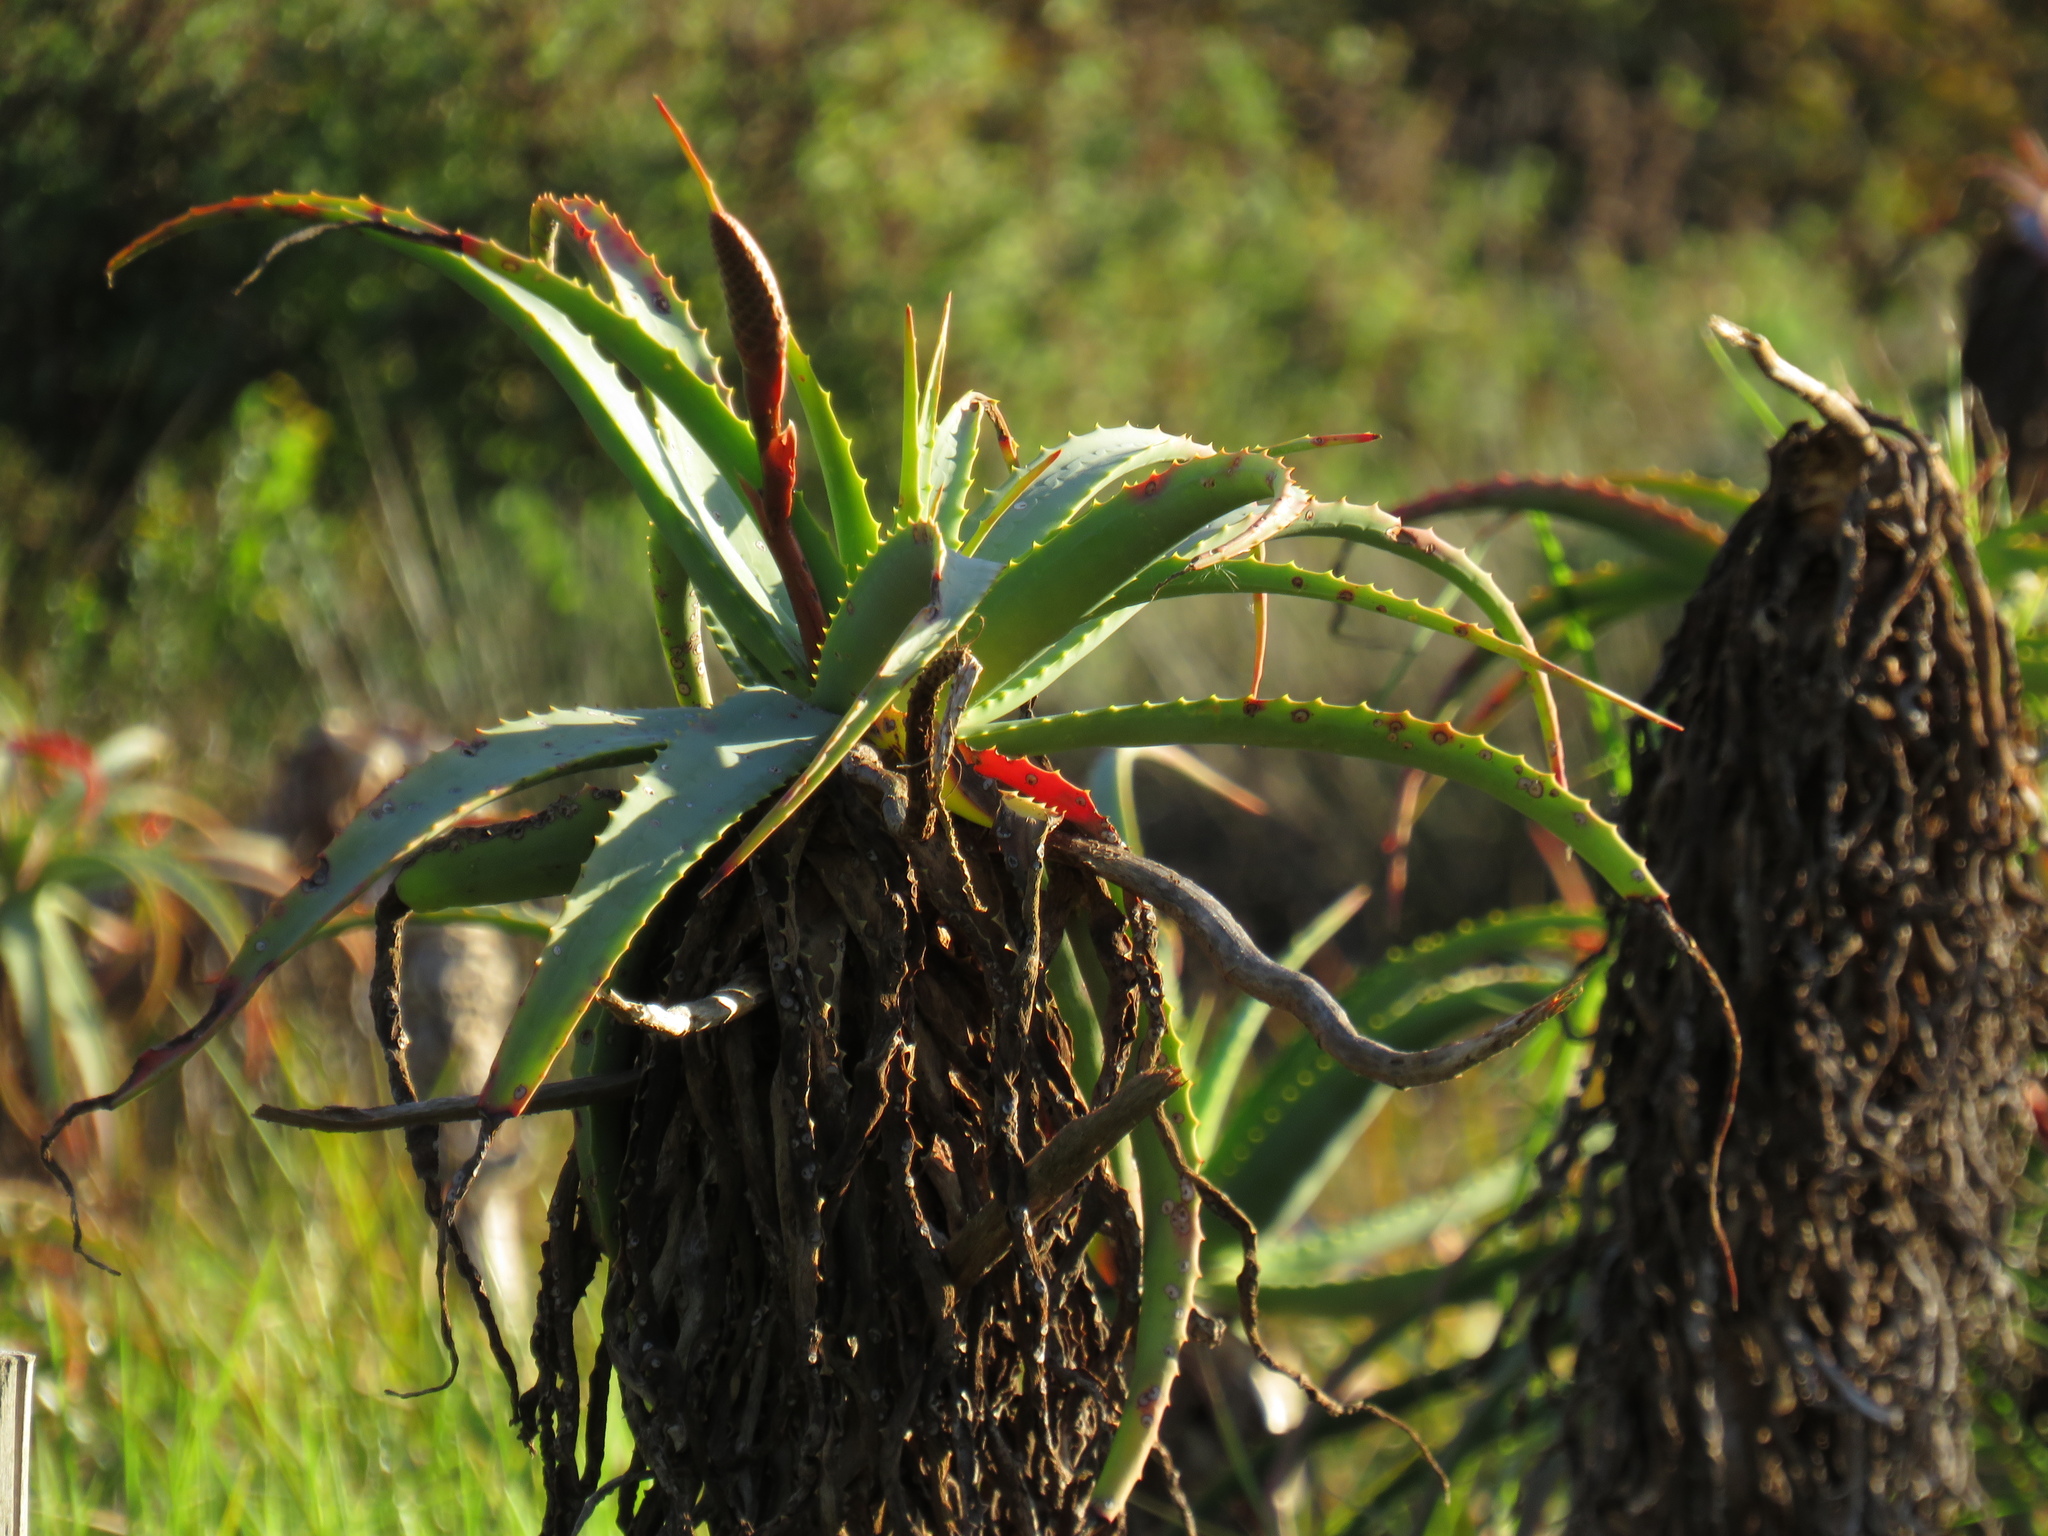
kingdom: Plantae
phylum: Tracheophyta
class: Liliopsida
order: Asparagales
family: Asphodelaceae
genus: Aloe
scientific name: Aloe arborescens
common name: Candelabra aloe
